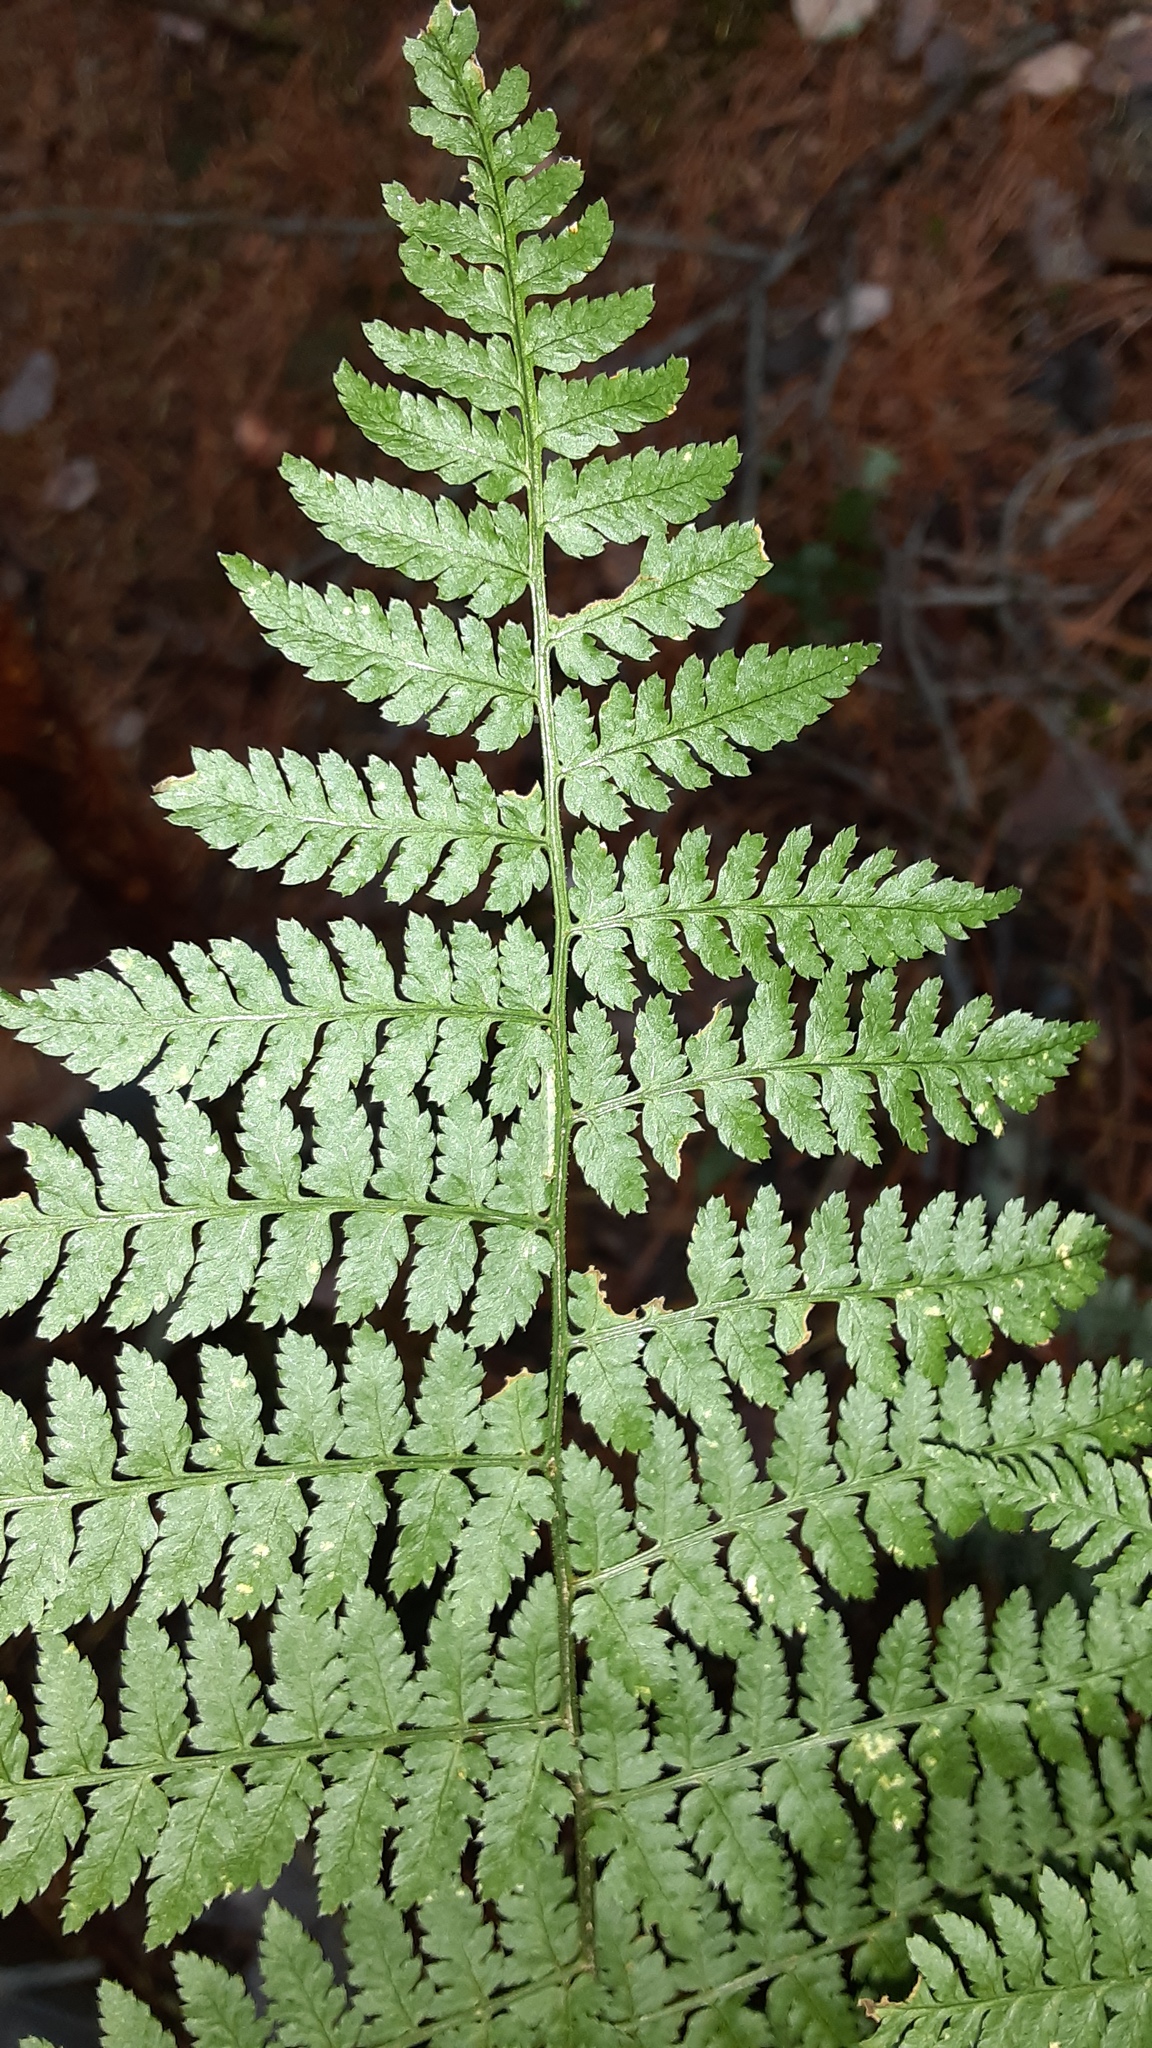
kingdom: Plantae
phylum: Tracheophyta
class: Polypodiopsida
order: Polypodiales
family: Dryopteridaceae
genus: Dryopteris
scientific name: Dryopteris intermedia
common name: Evergreen wood fern
